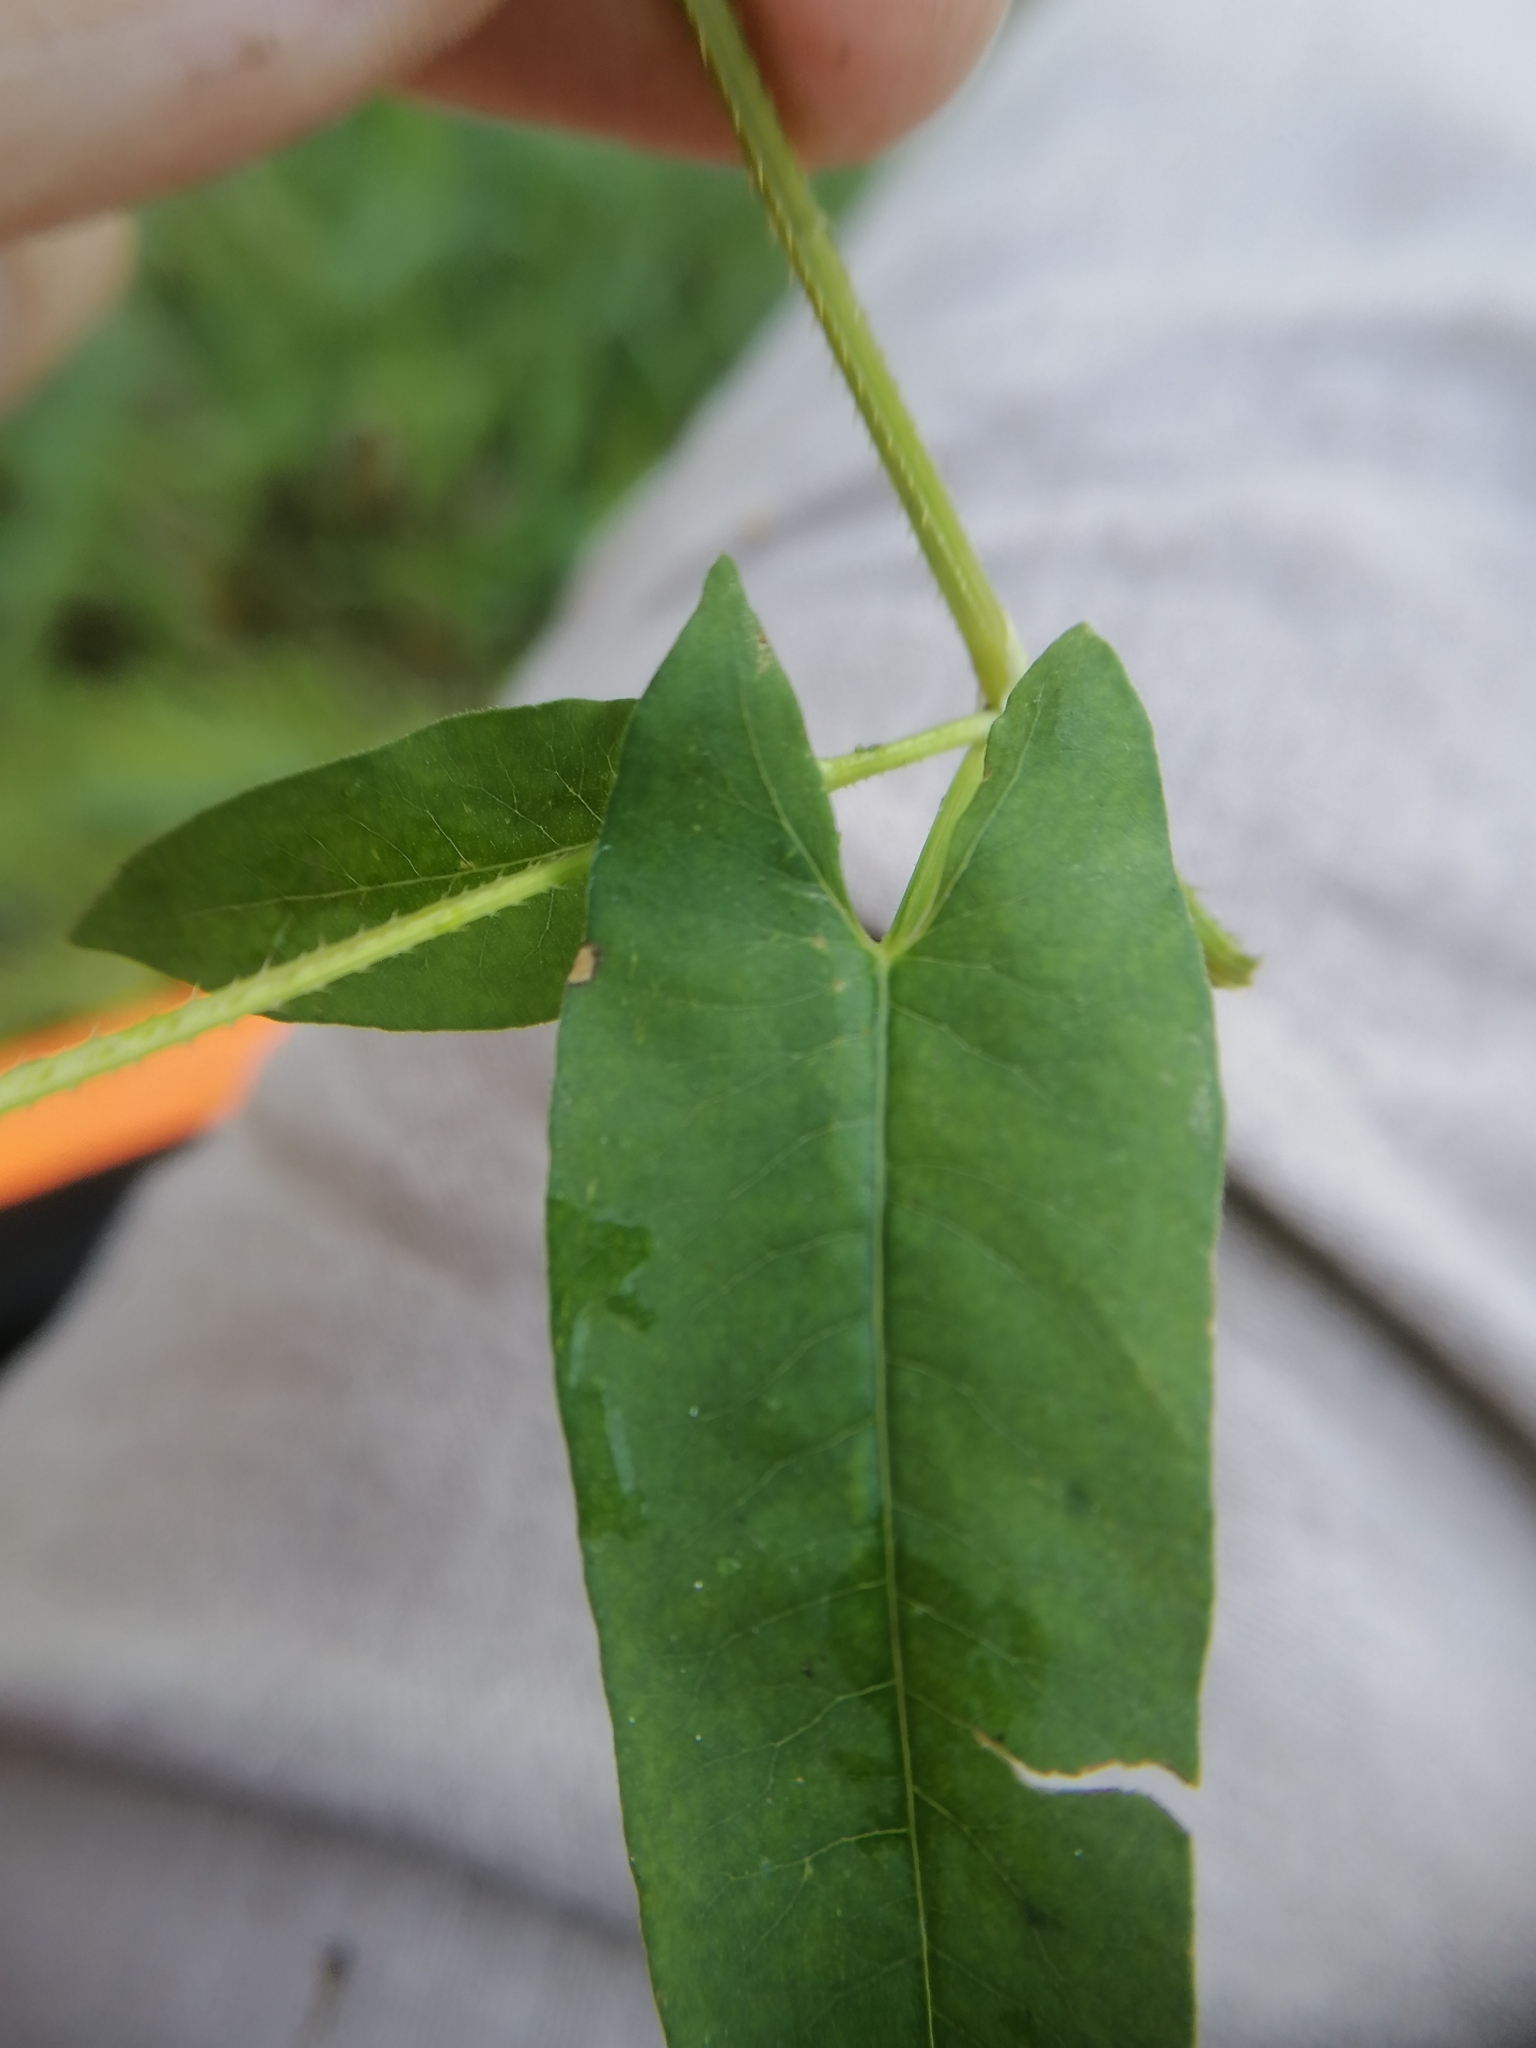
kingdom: Plantae
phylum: Tracheophyta
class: Magnoliopsida
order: Caryophyllales
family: Polygonaceae
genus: Persicaria
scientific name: Persicaria sagittata
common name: American tearthumb
